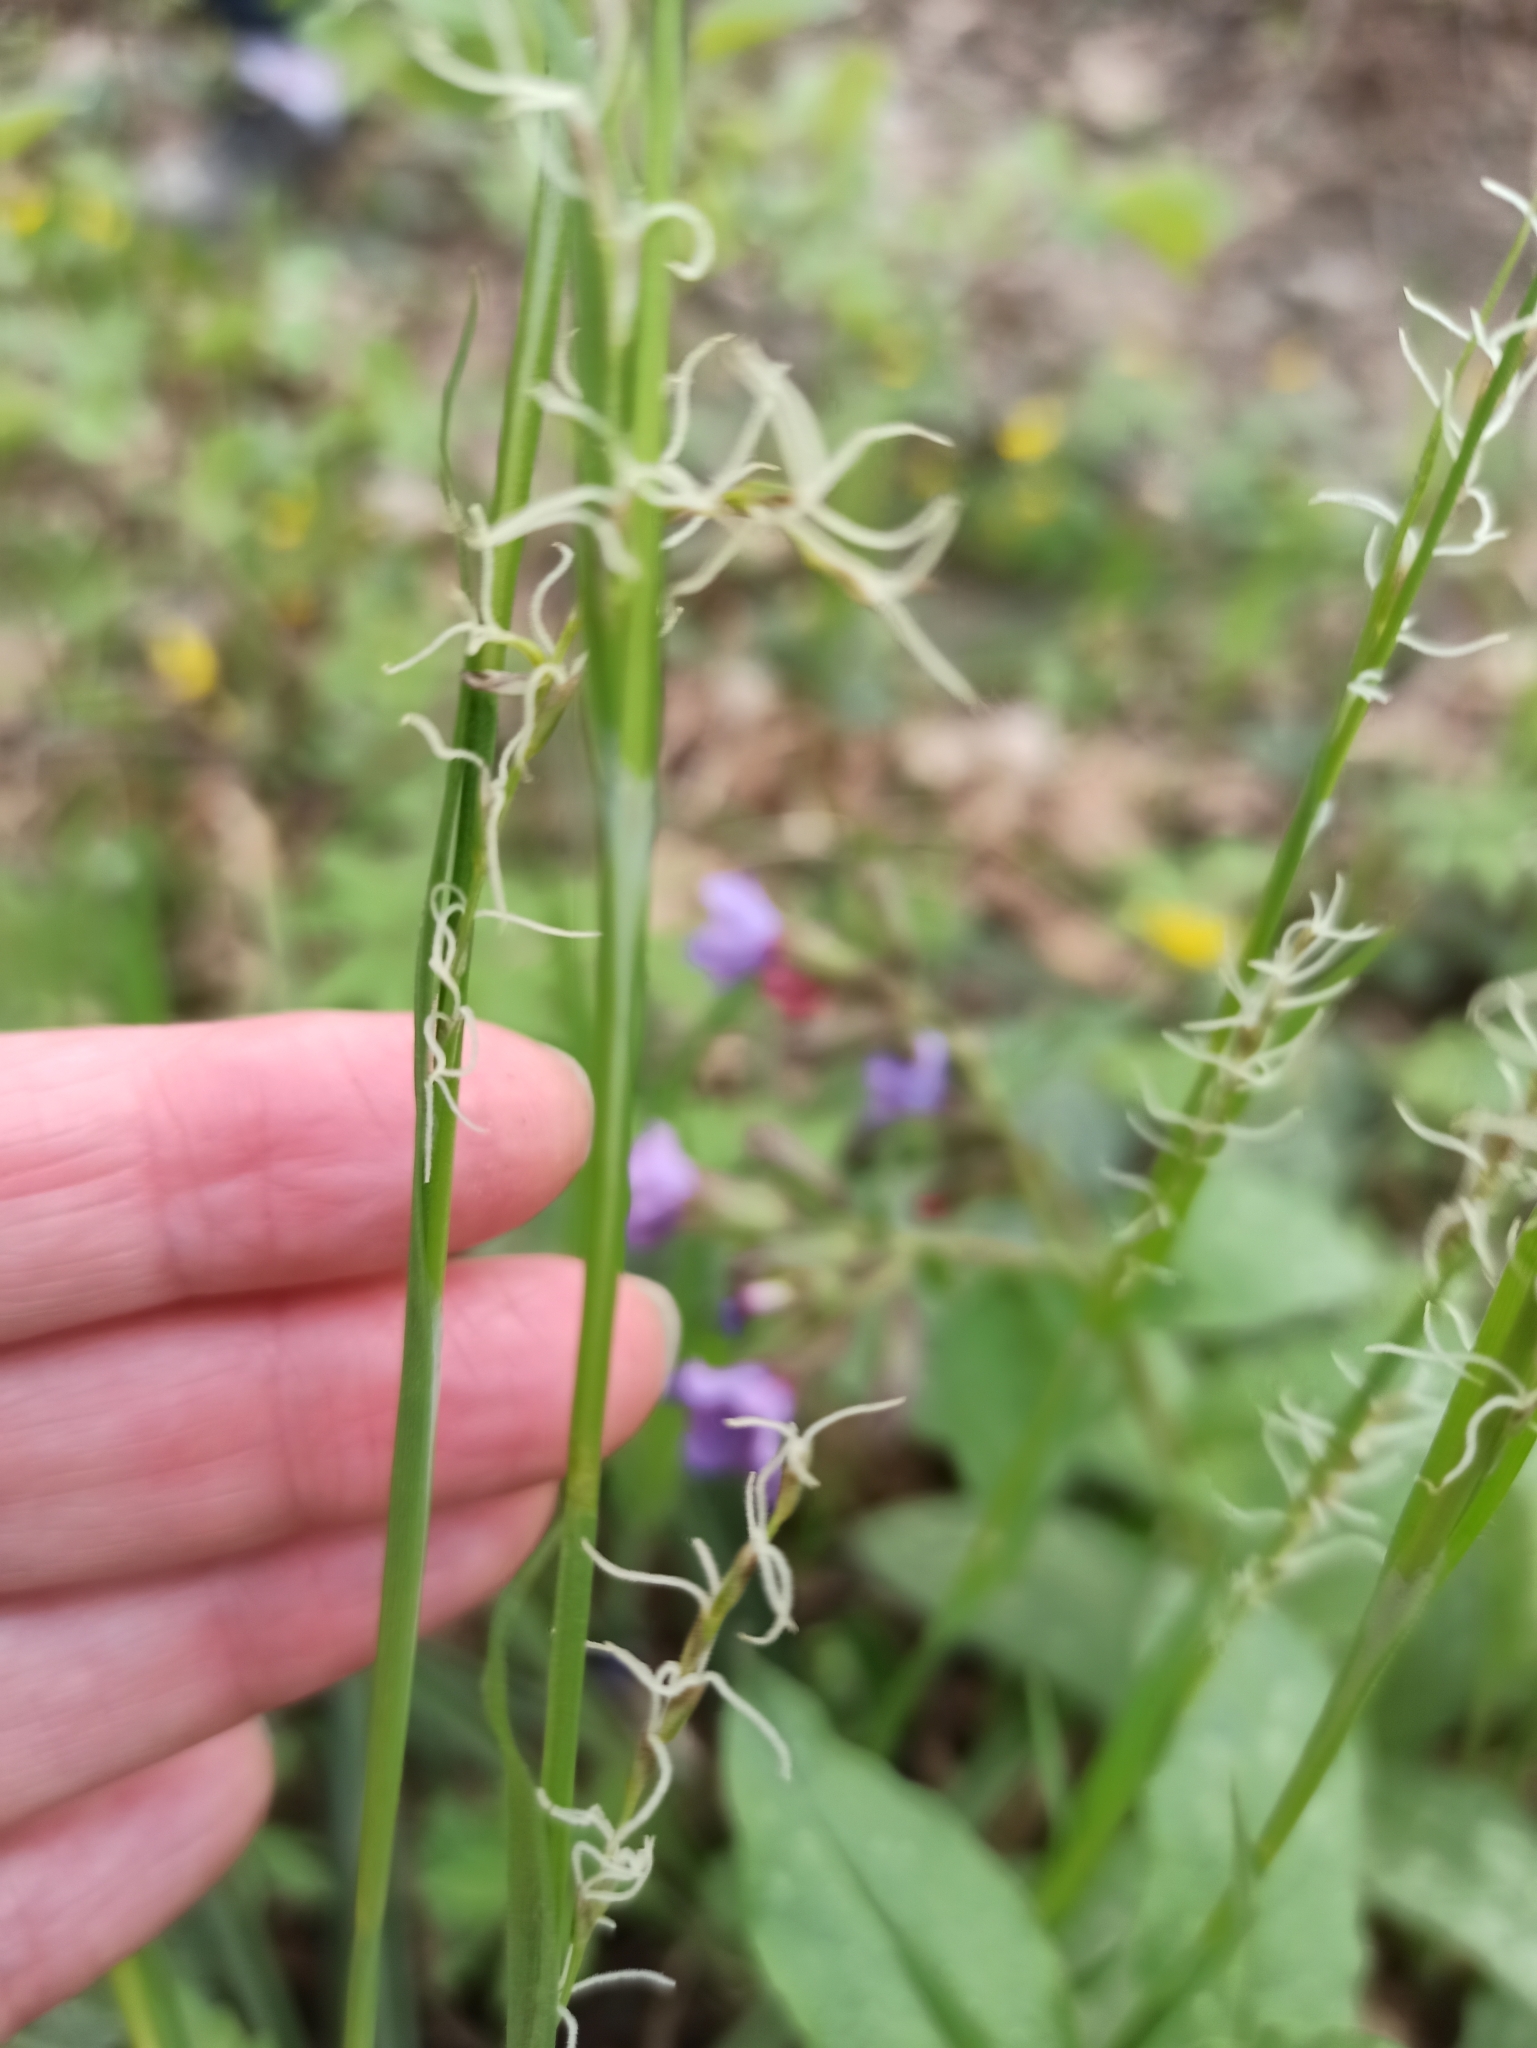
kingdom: Plantae
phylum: Tracheophyta
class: Liliopsida
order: Poales
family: Cyperaceae
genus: Carex
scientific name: Carex pilosa
